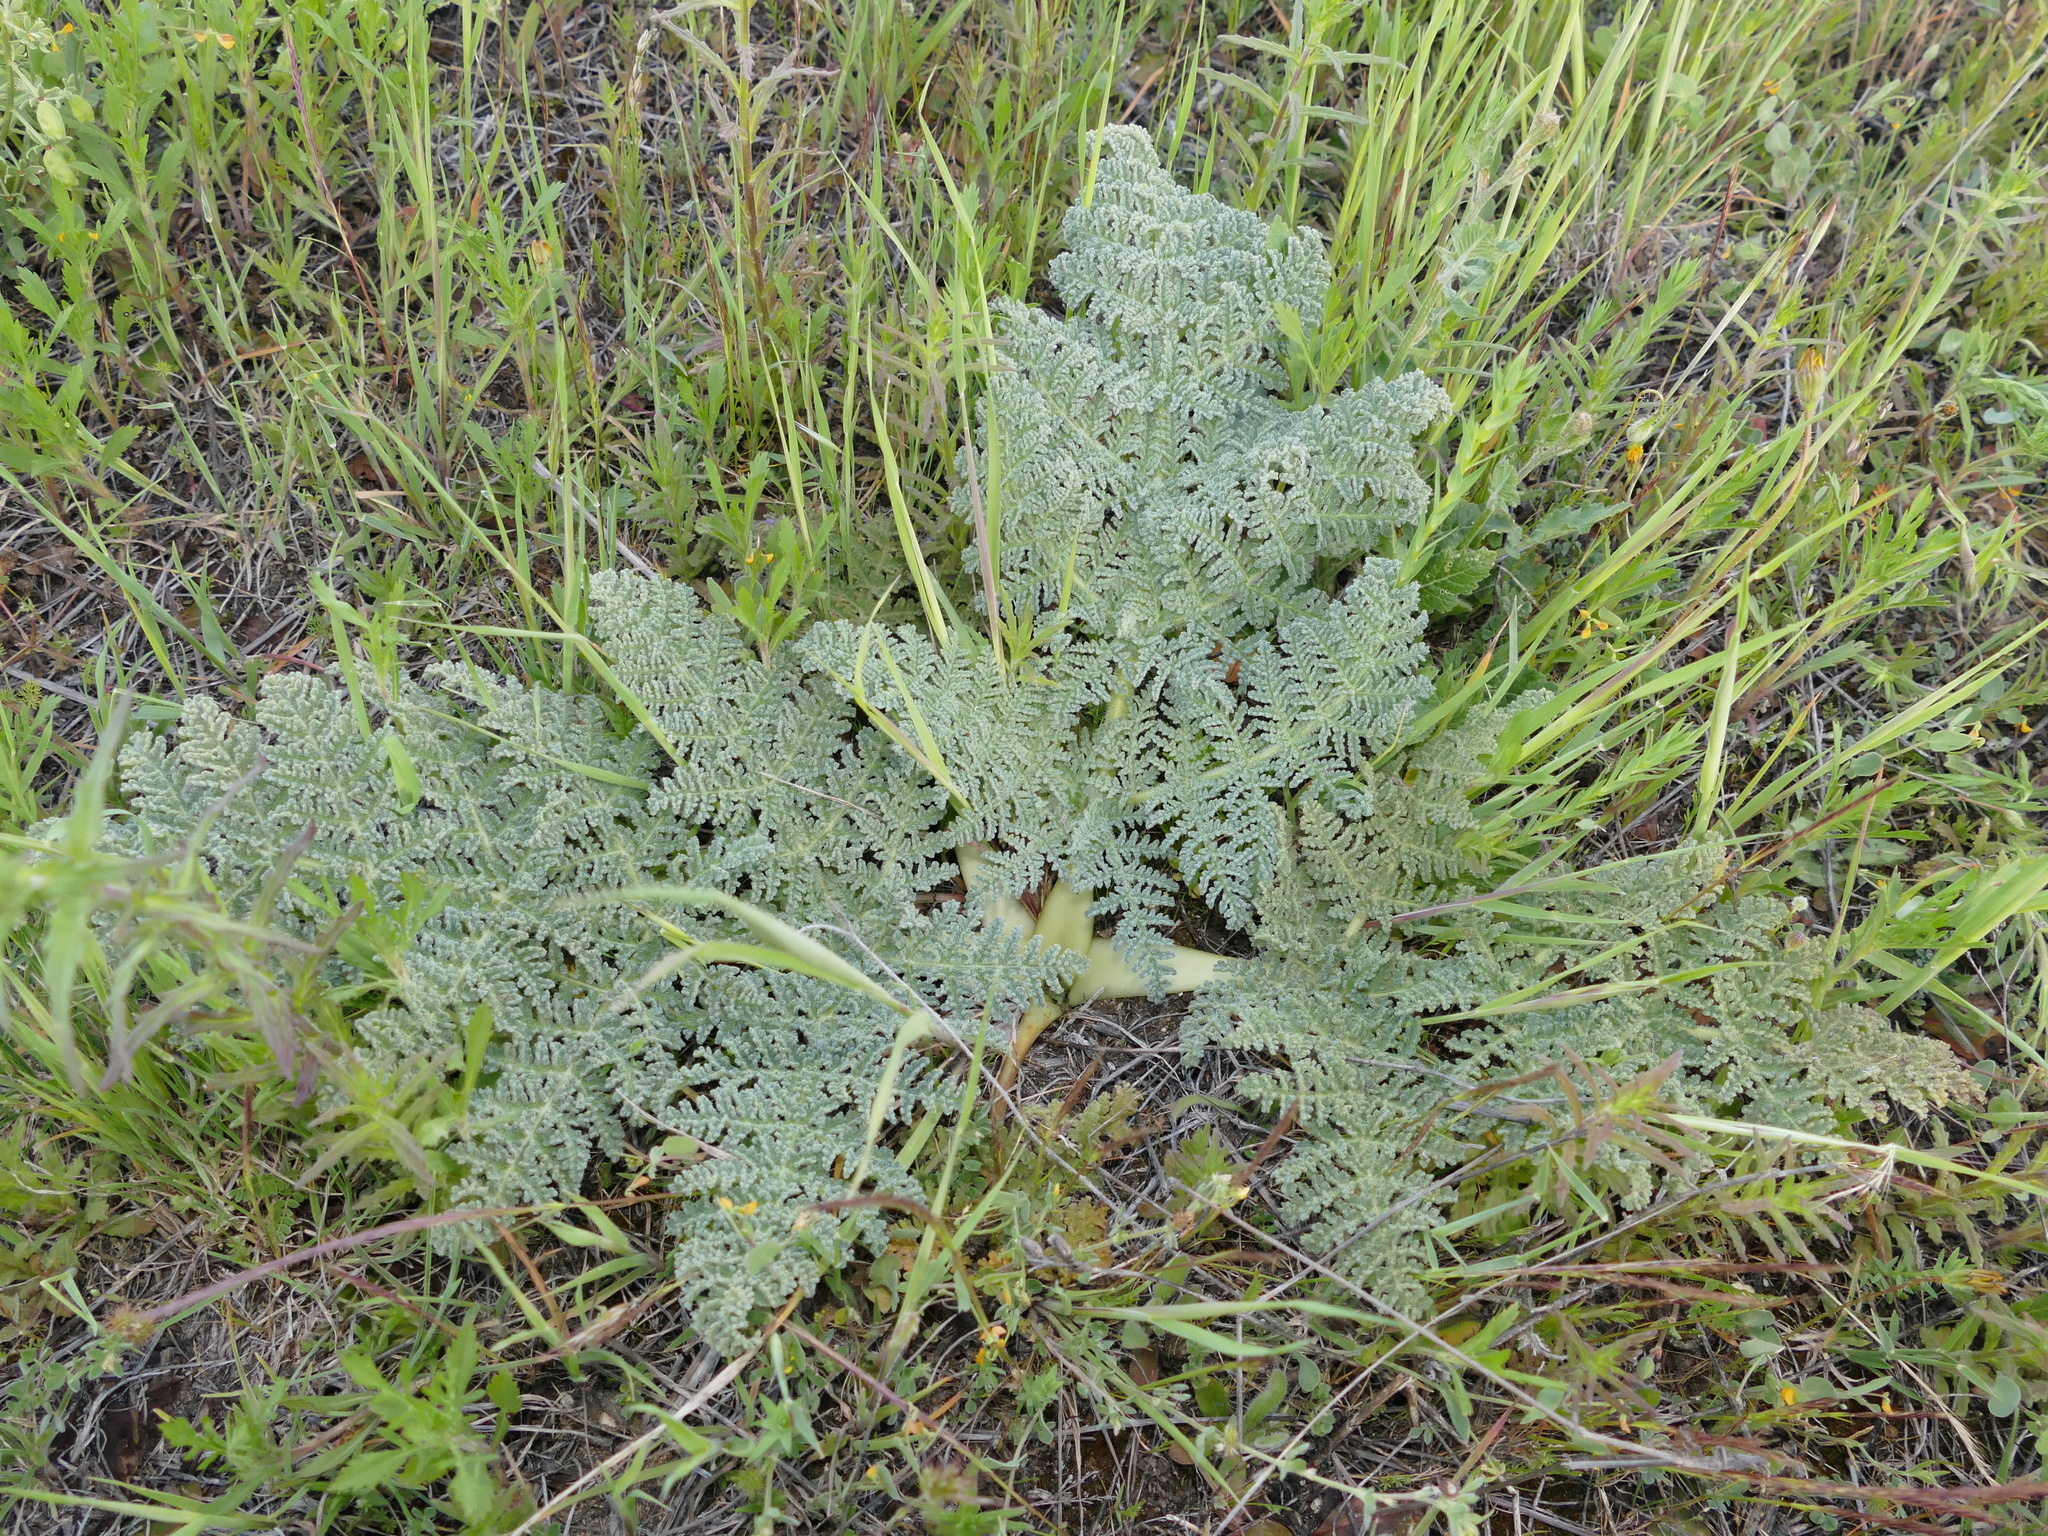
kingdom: Plantae
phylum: Tracheophyta
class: Magnoliopsida
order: Apiales
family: Apiaceae
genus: Thapsia
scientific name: Thapsia villosa
